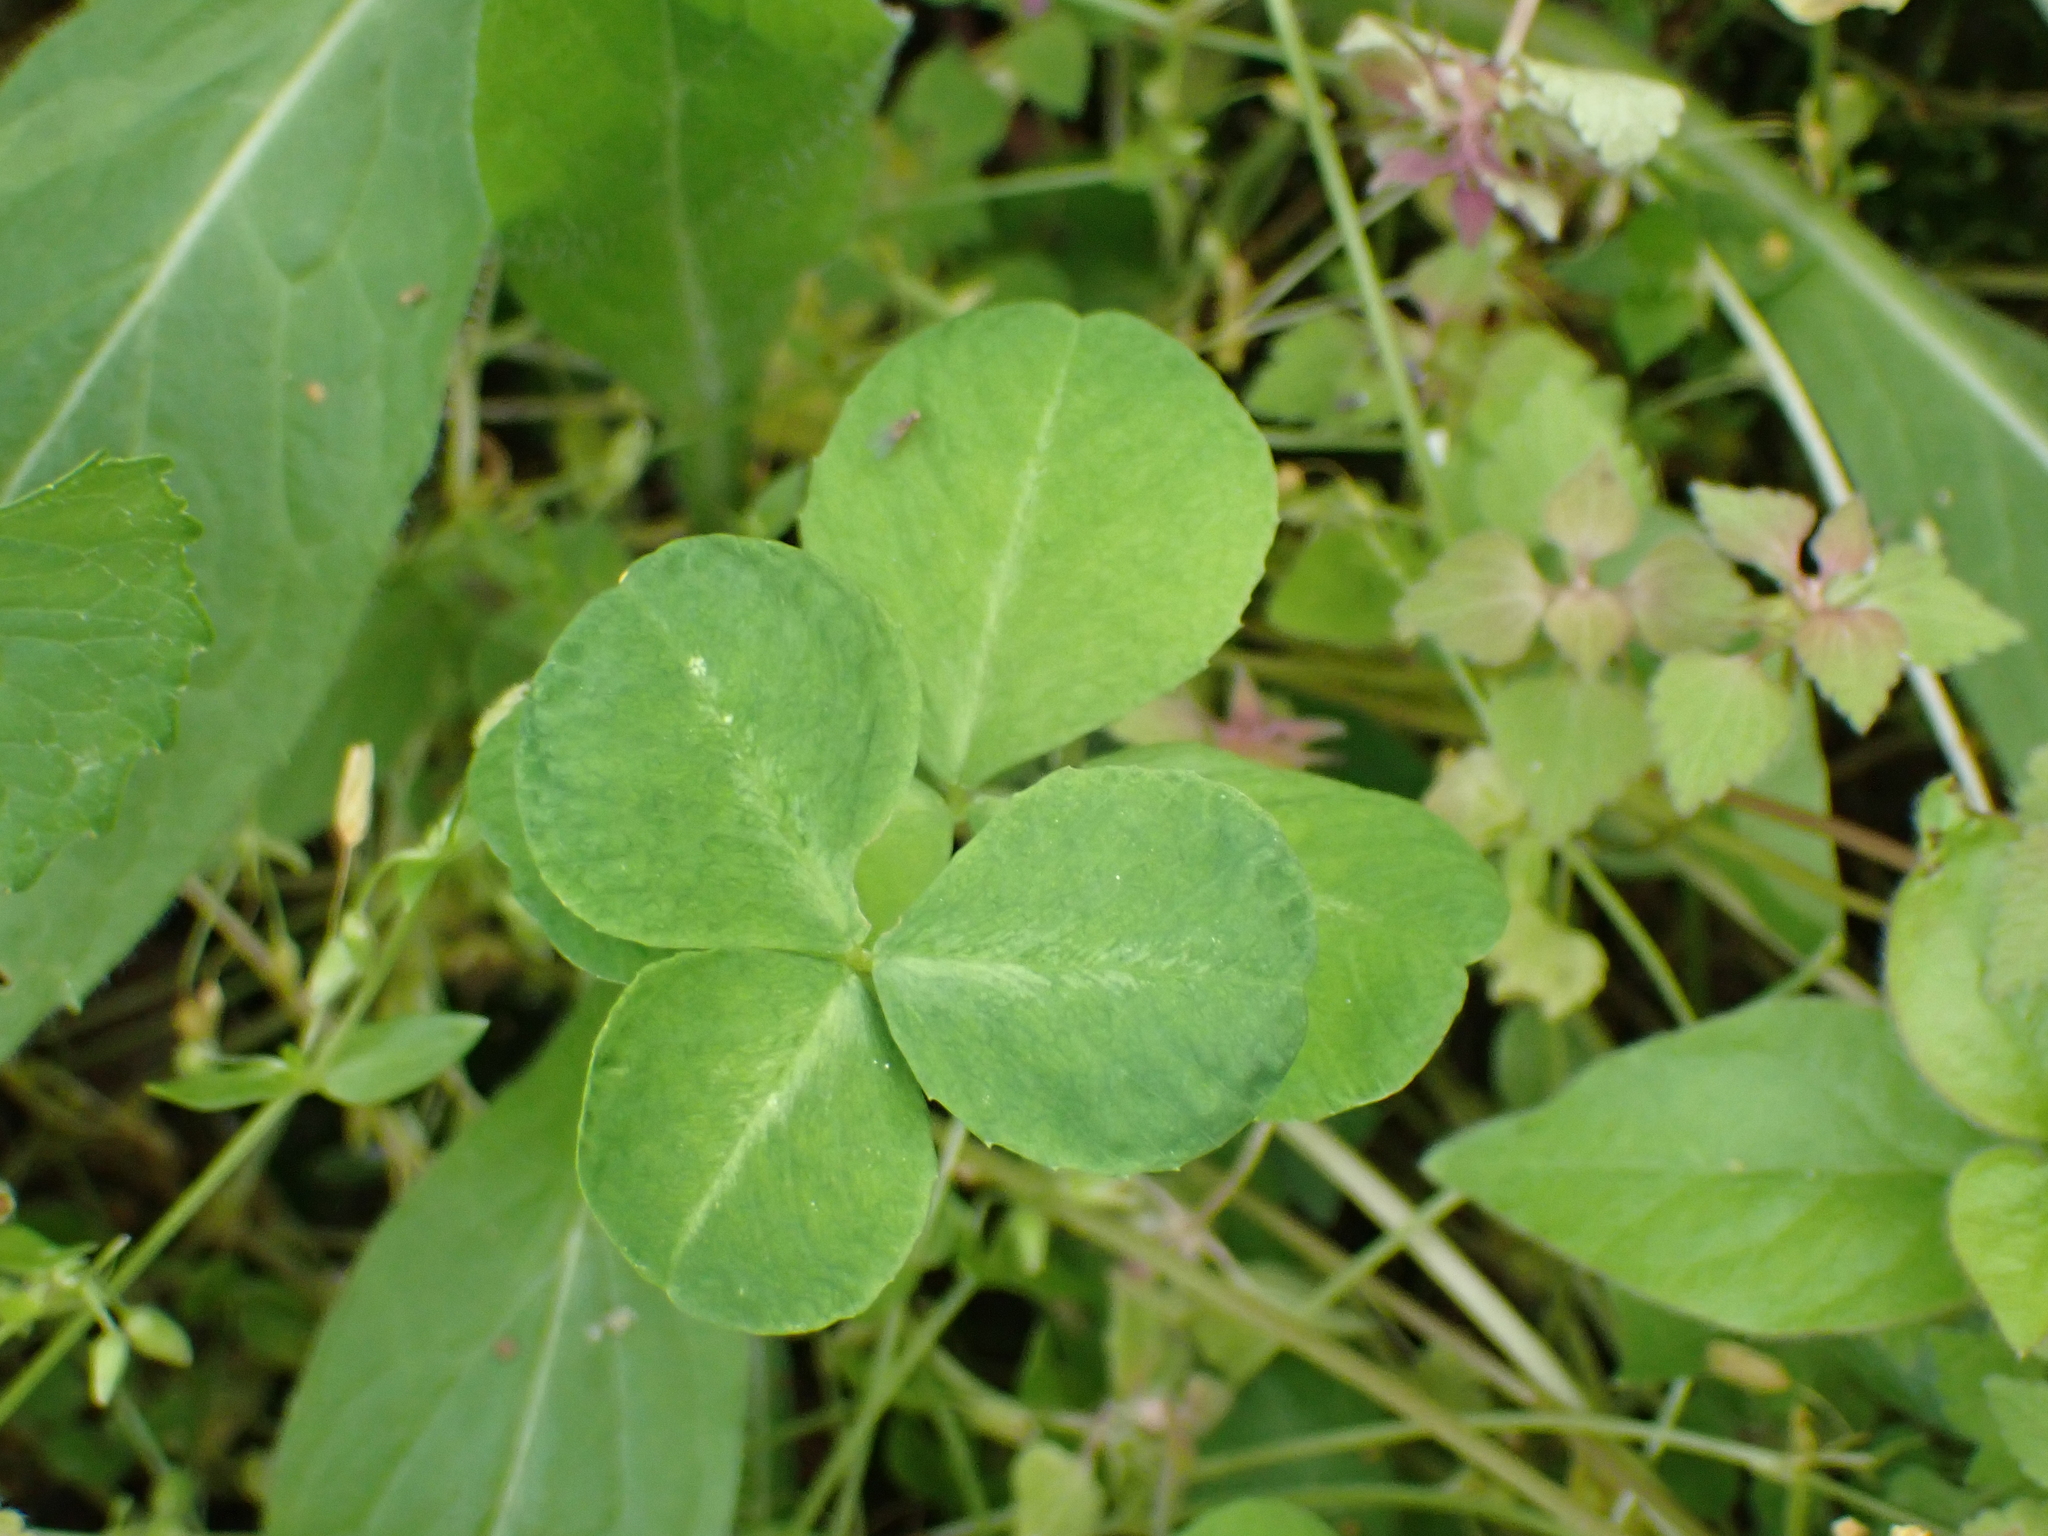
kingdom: Plantae
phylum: Tracheophyta
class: Magnoliopsida
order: Fabales
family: Fabaceae
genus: Trifolium
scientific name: Trifolium stoloniferum
